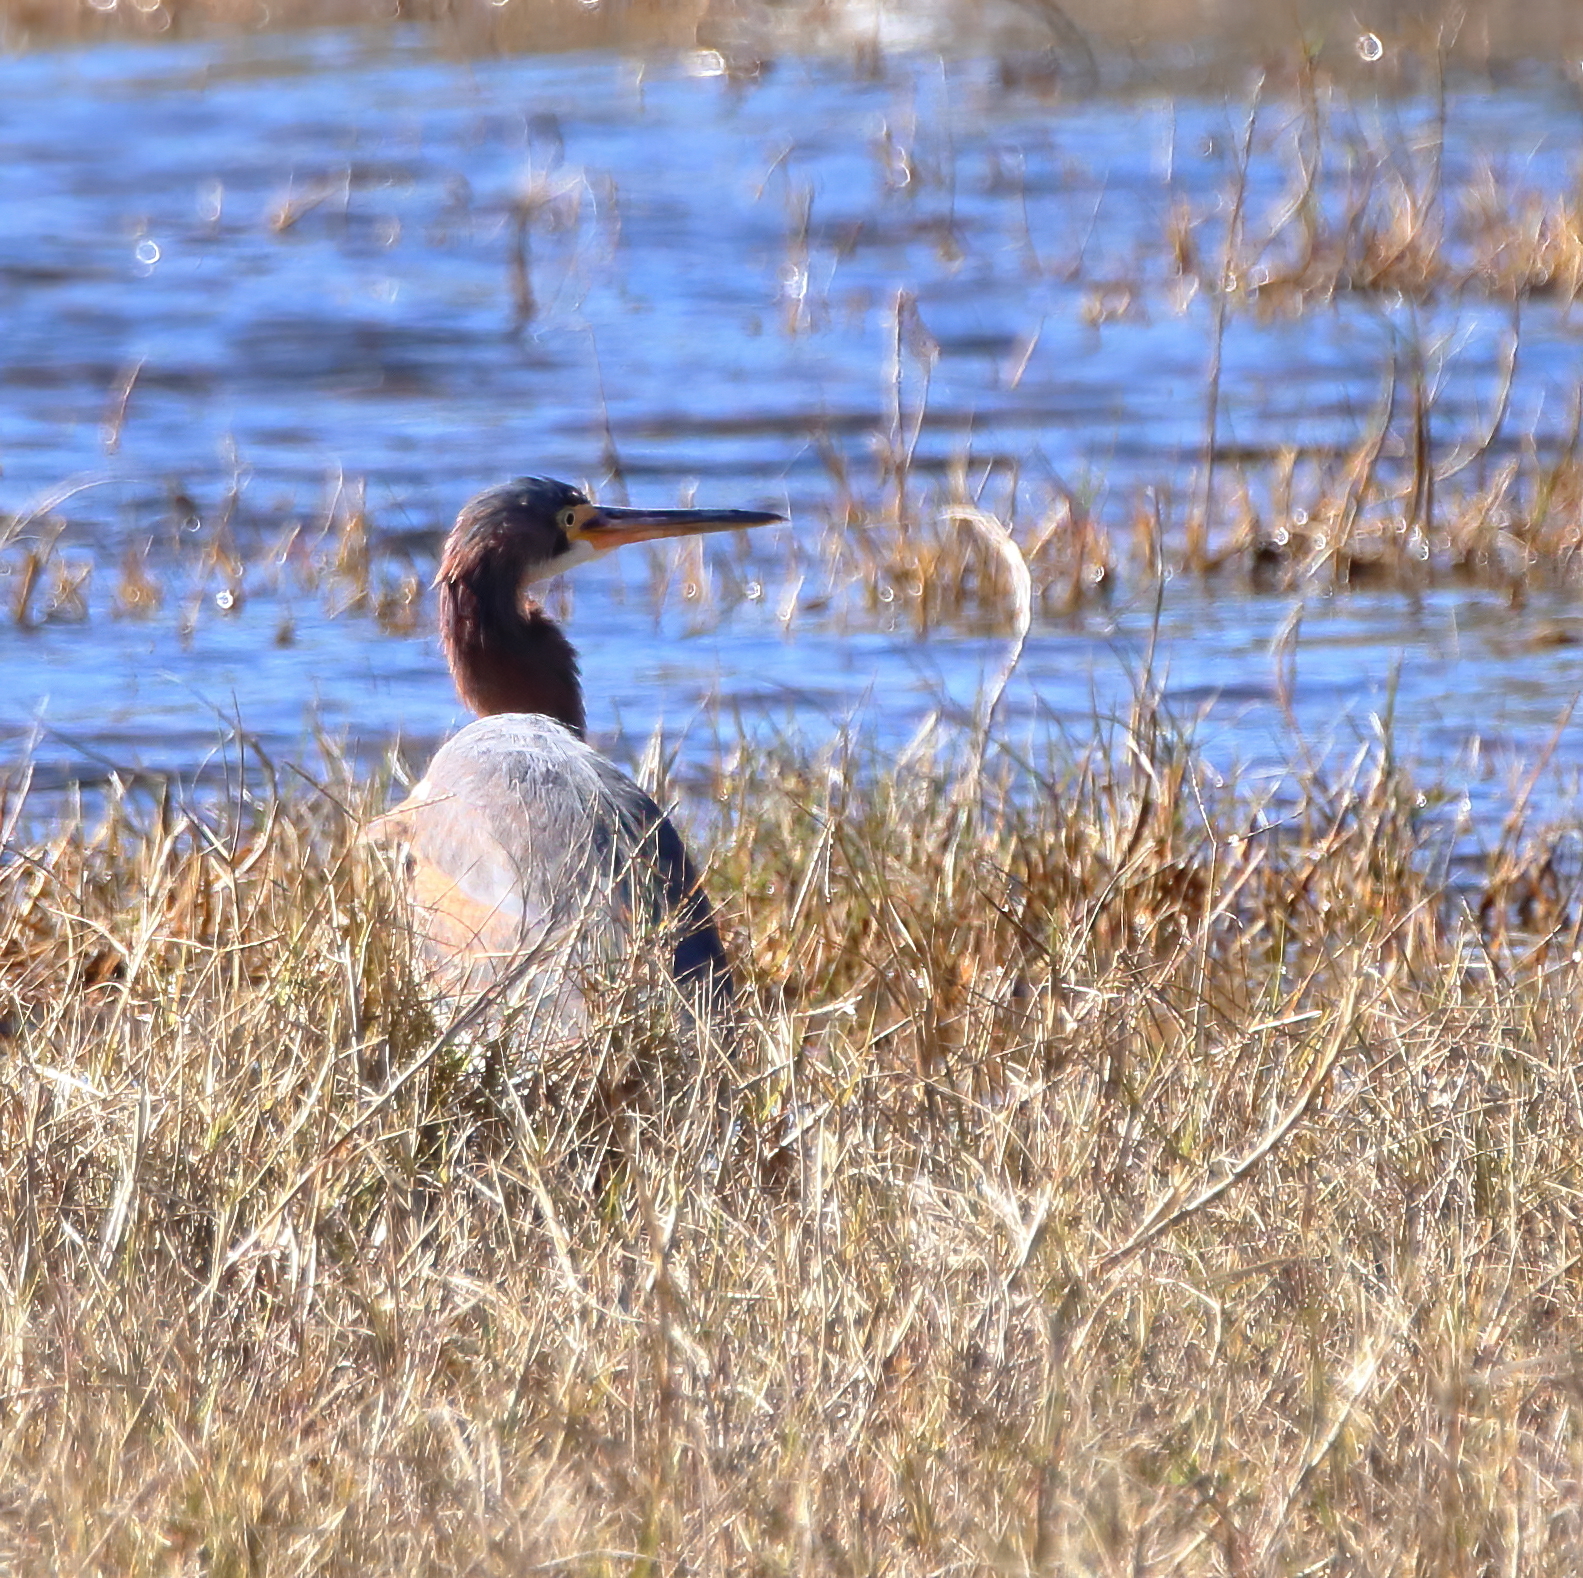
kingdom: Animalia
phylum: Chordata
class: Aves
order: Pelecaniformes
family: Ardeidae
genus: Egretta
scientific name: Egretta tricolor
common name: Tricolored heron
